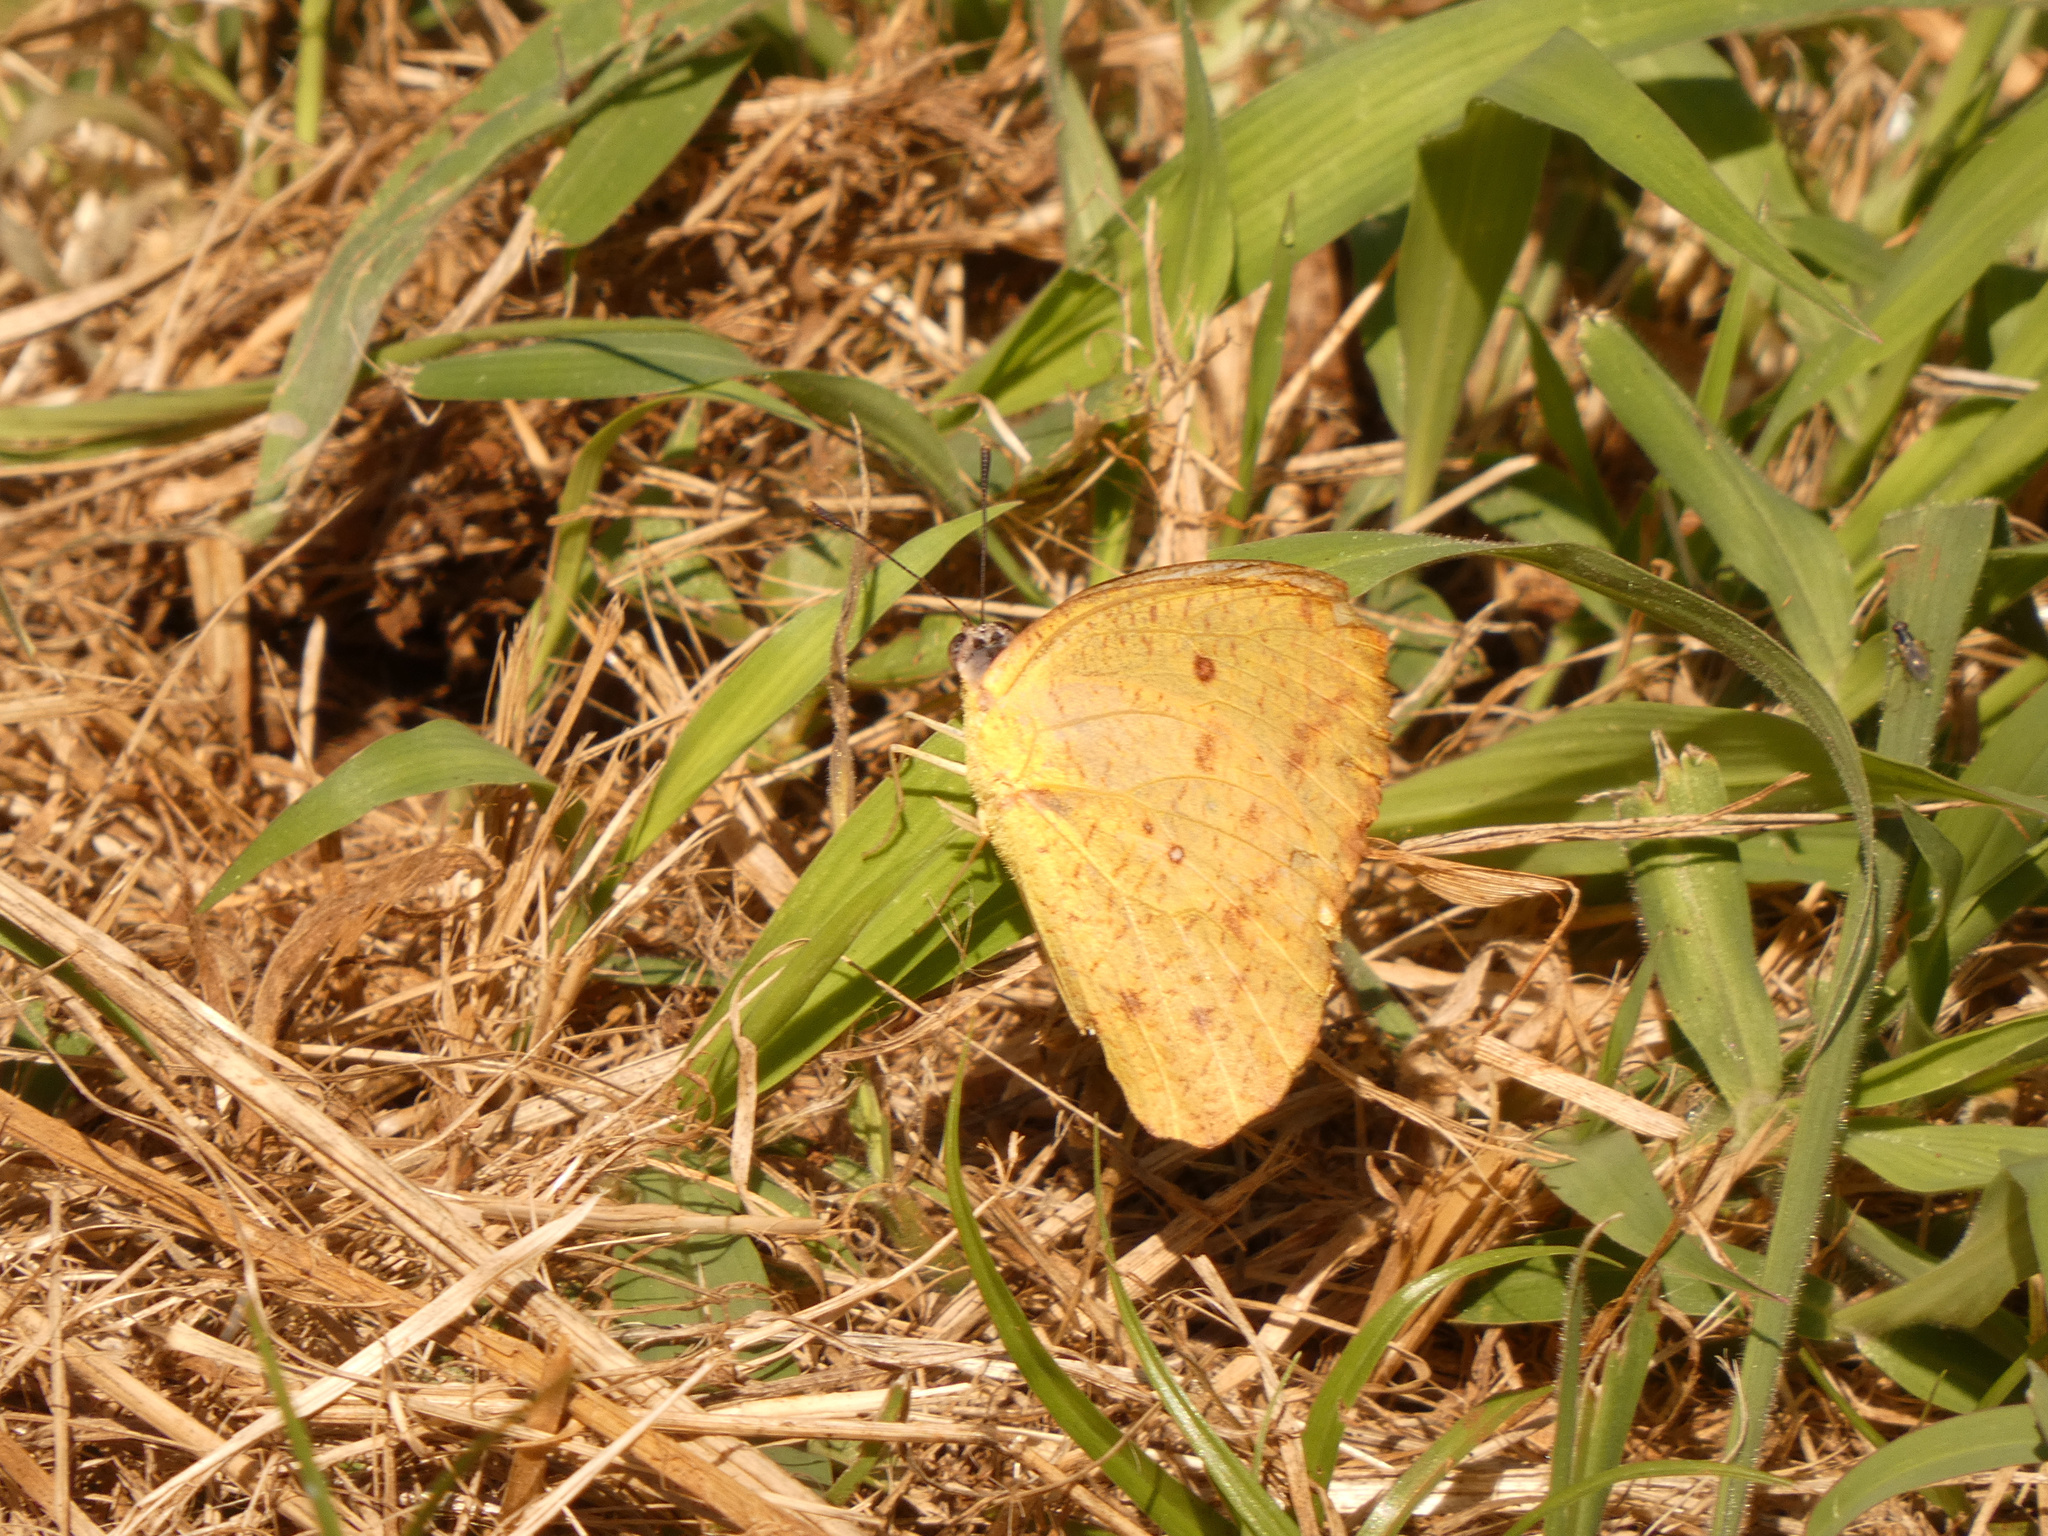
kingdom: Animalia
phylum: Arthropoda
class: Insecta
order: Lepidoptera
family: Pieridae
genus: Catopsilia
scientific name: Catopsilia florella
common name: African migrant
